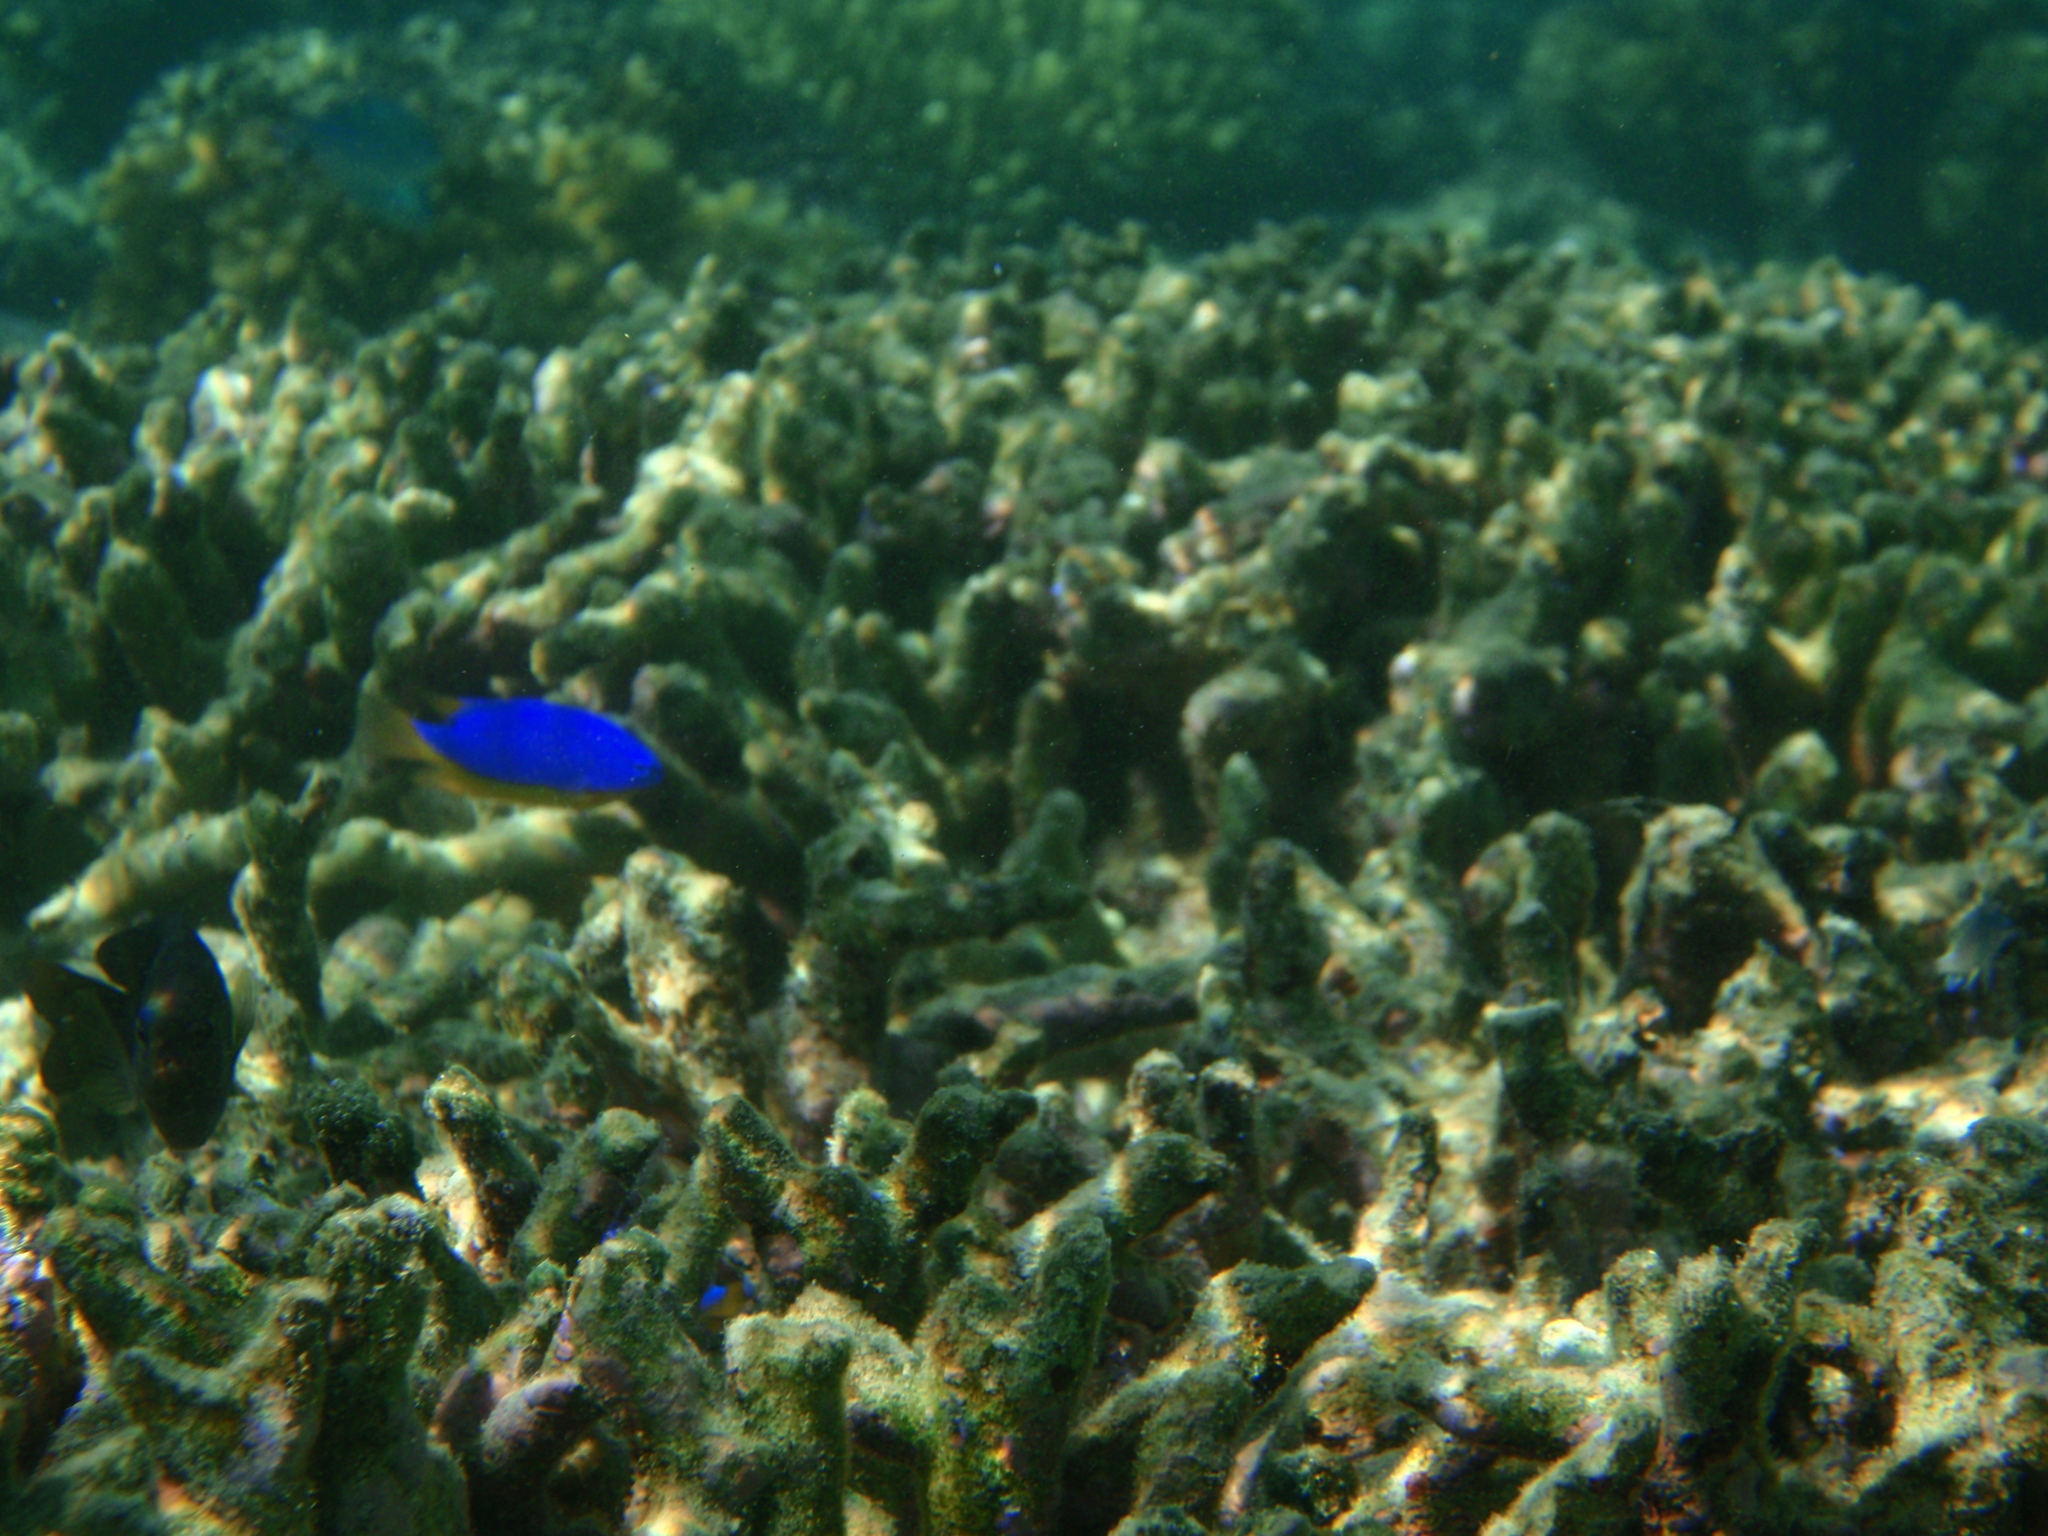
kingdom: Animalia
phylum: Chordata
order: Perciformes
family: Pomacentridae
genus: Chrysiptera
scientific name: Chrysiptera taupou
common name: Fiji damsel
